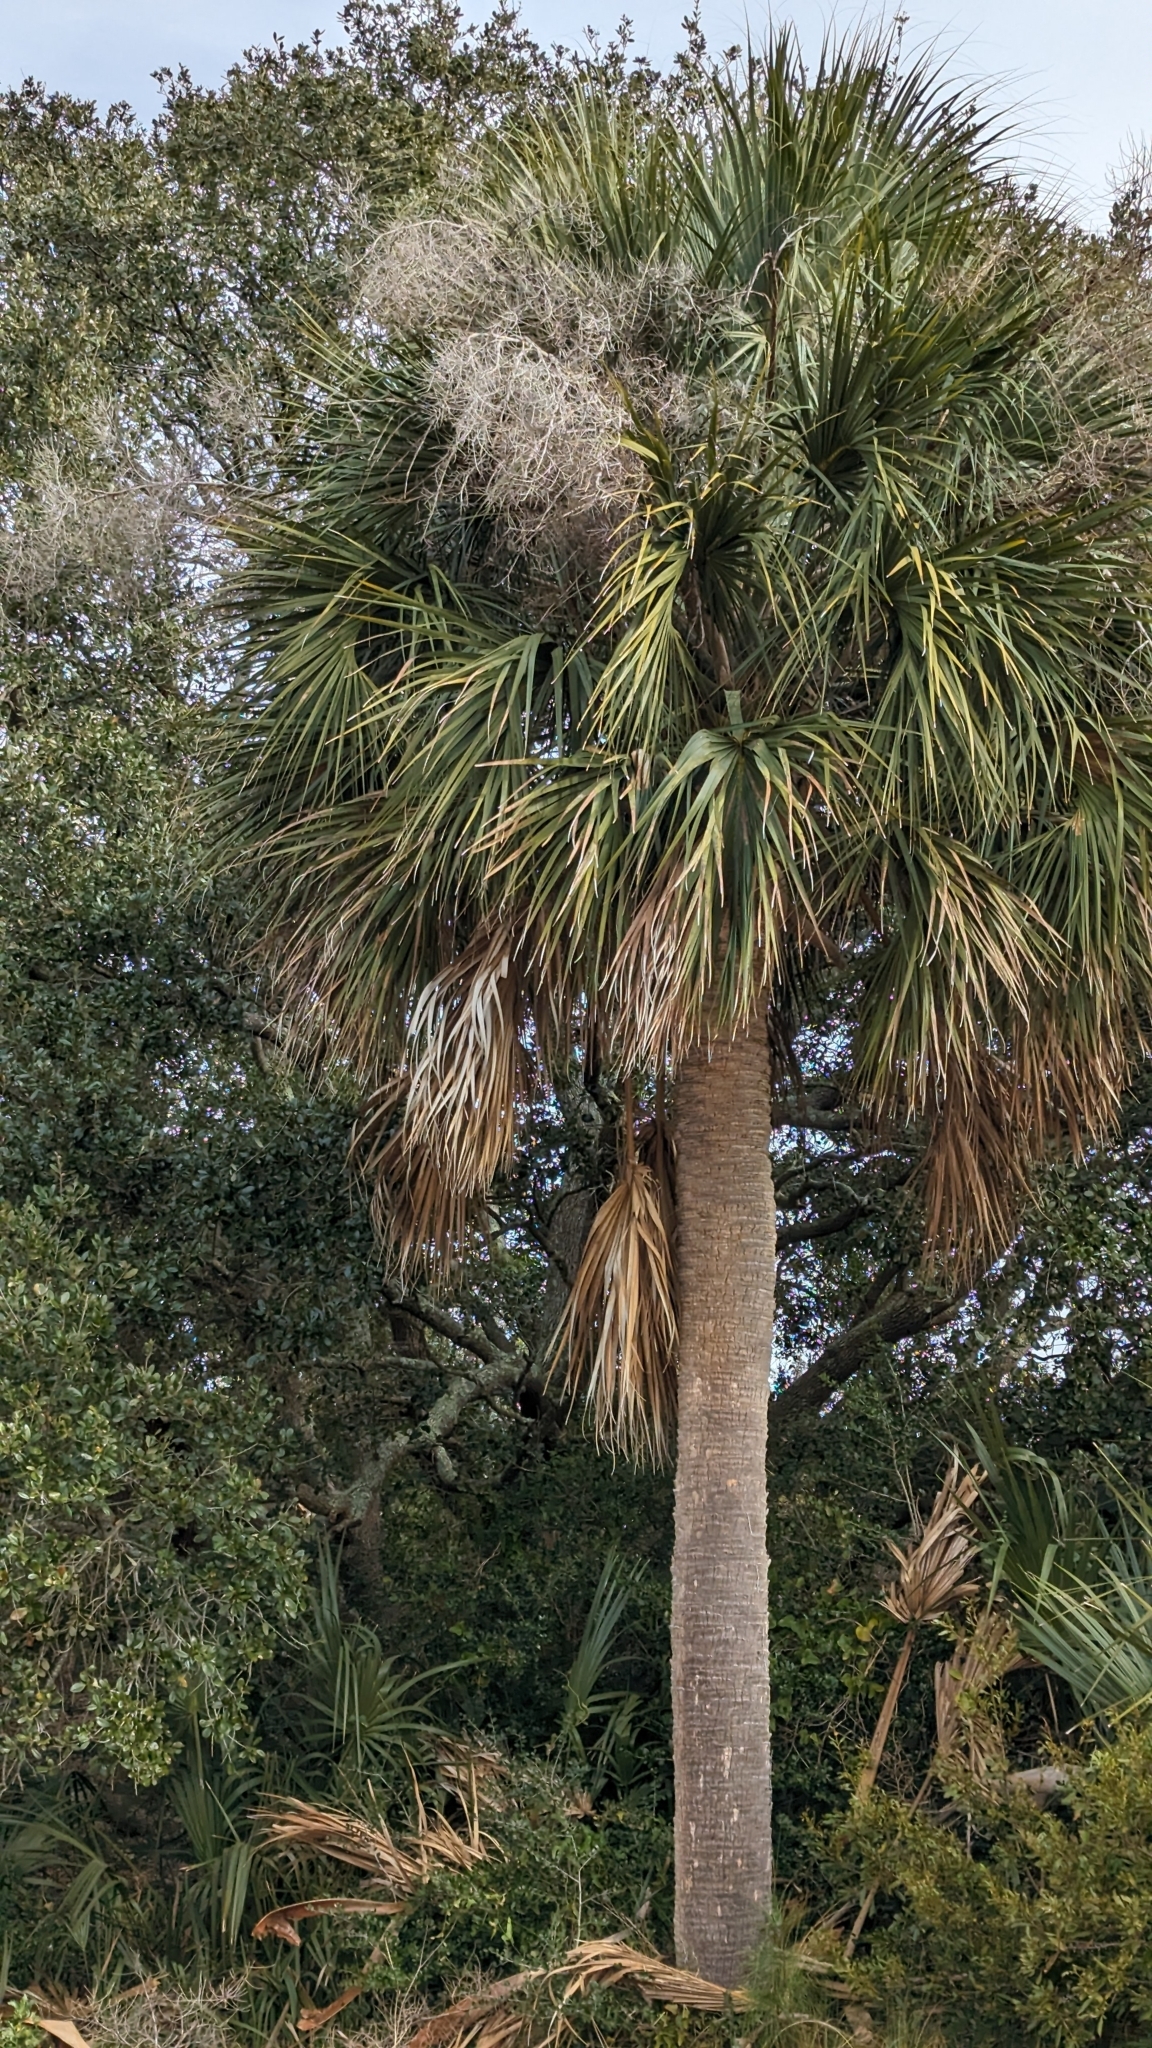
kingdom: Plantae
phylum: Tracheophyta
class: Liliopsida
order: Arecales
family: Arecaceae
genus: Sabal
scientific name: Sabal palmetto
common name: Blue palmetto
